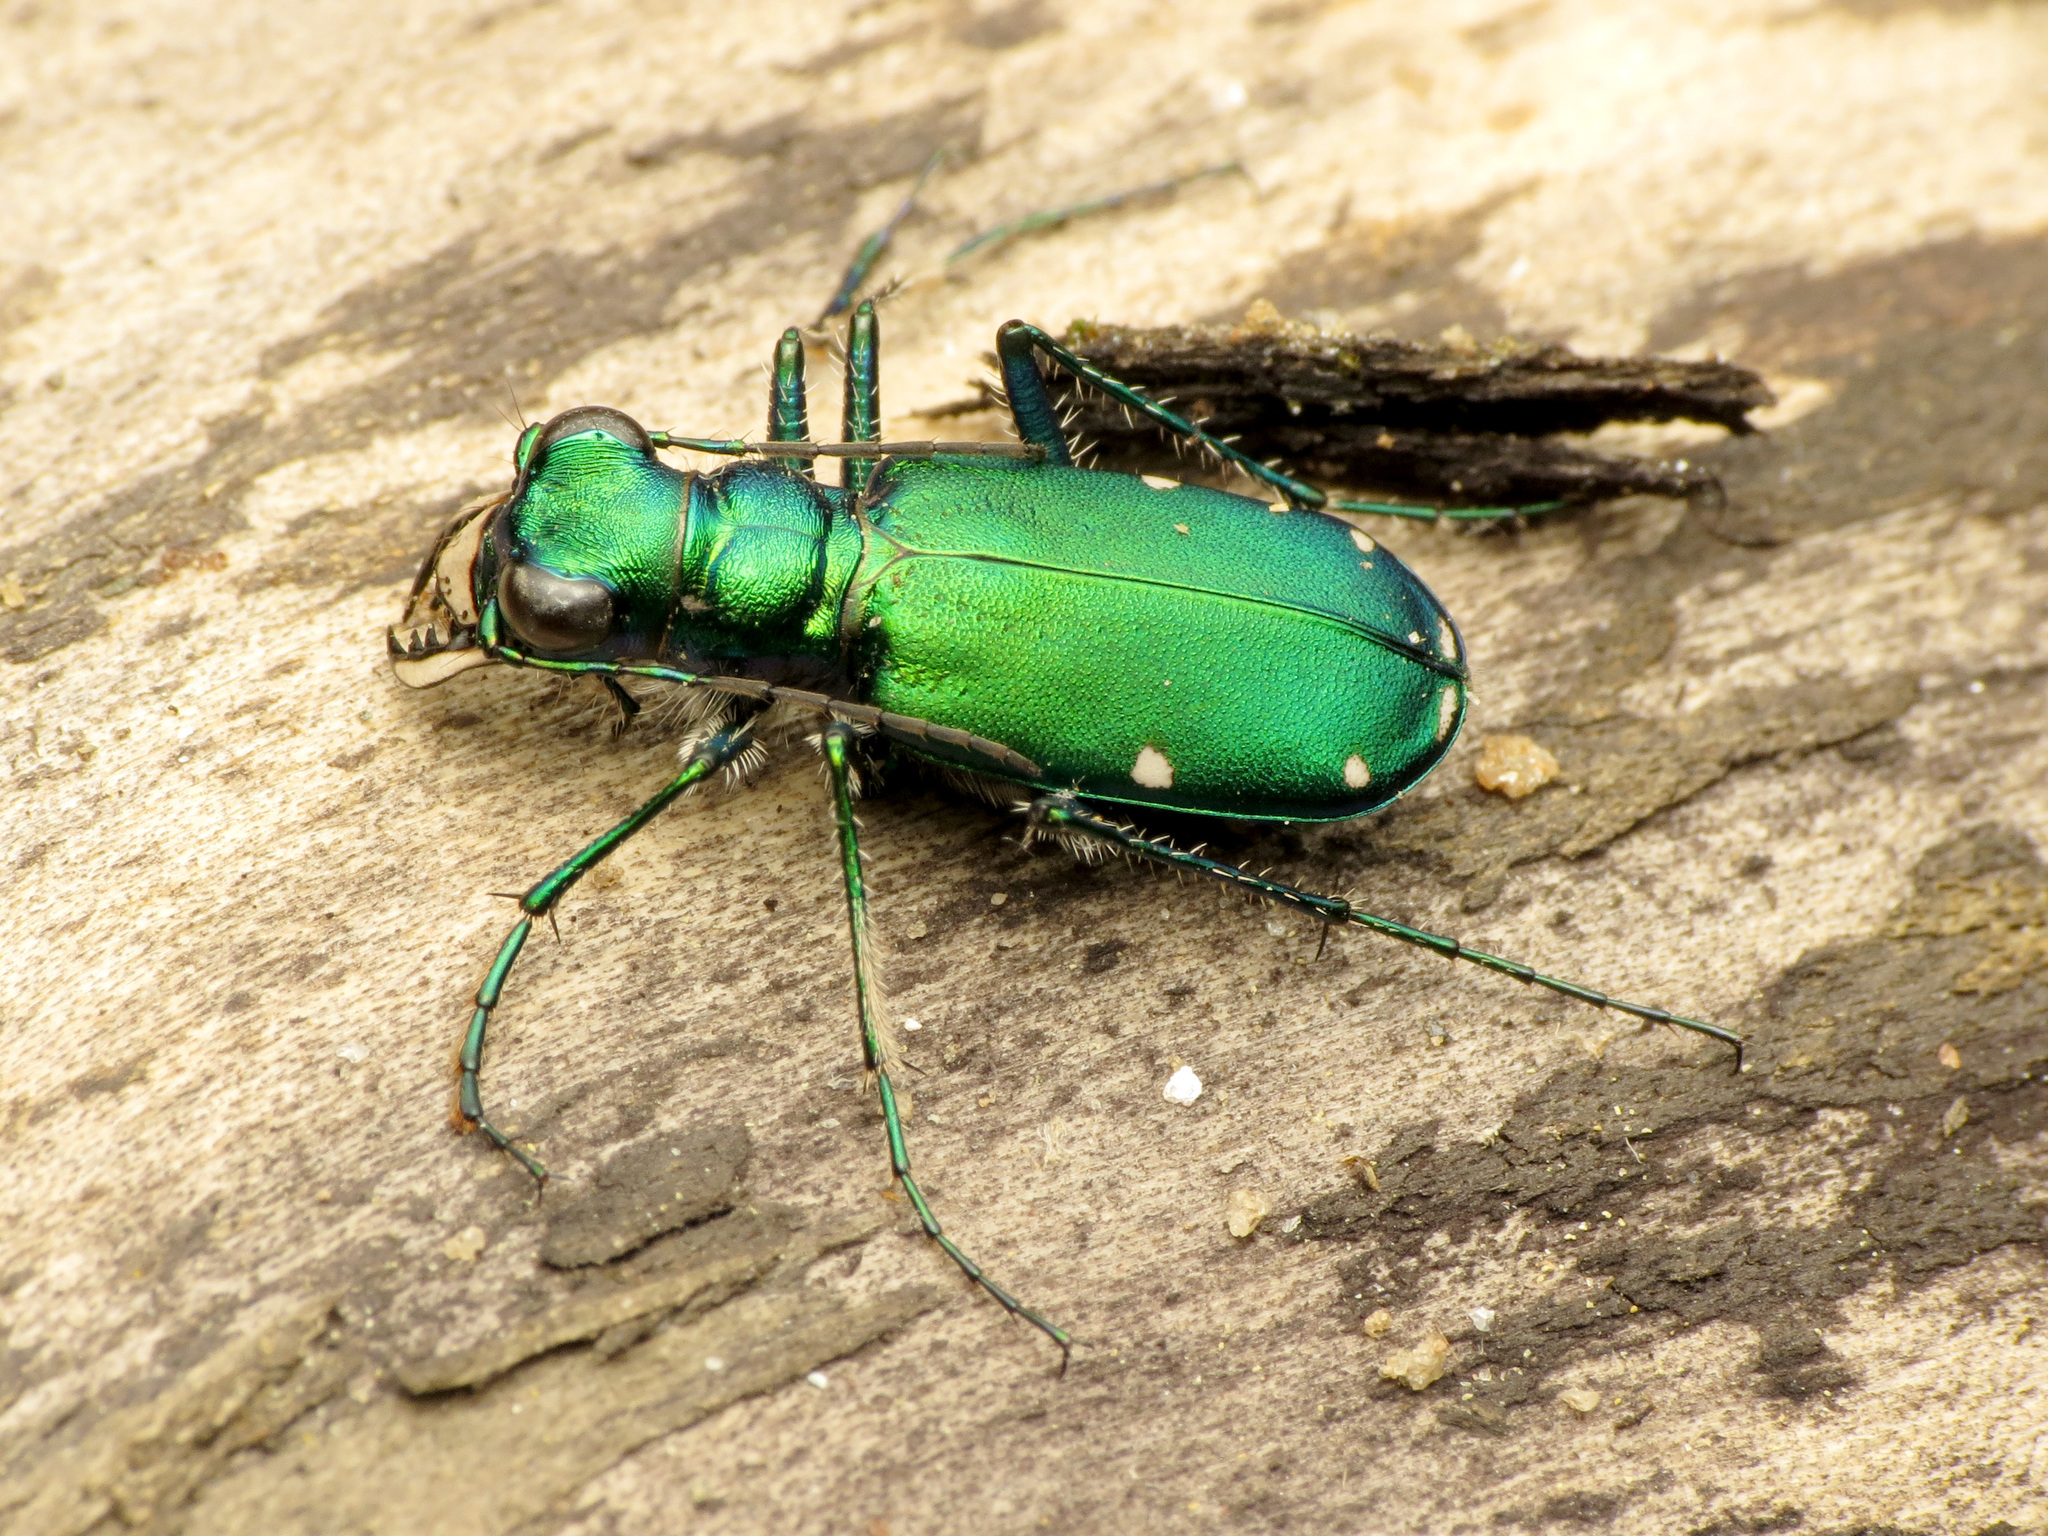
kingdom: Animalia
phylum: Arthropoda
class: Insecta
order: Coleoptera
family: Carabidae
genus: Cicindela
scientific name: Cicindela sexguttata
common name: Six-spotted tiger beetle
